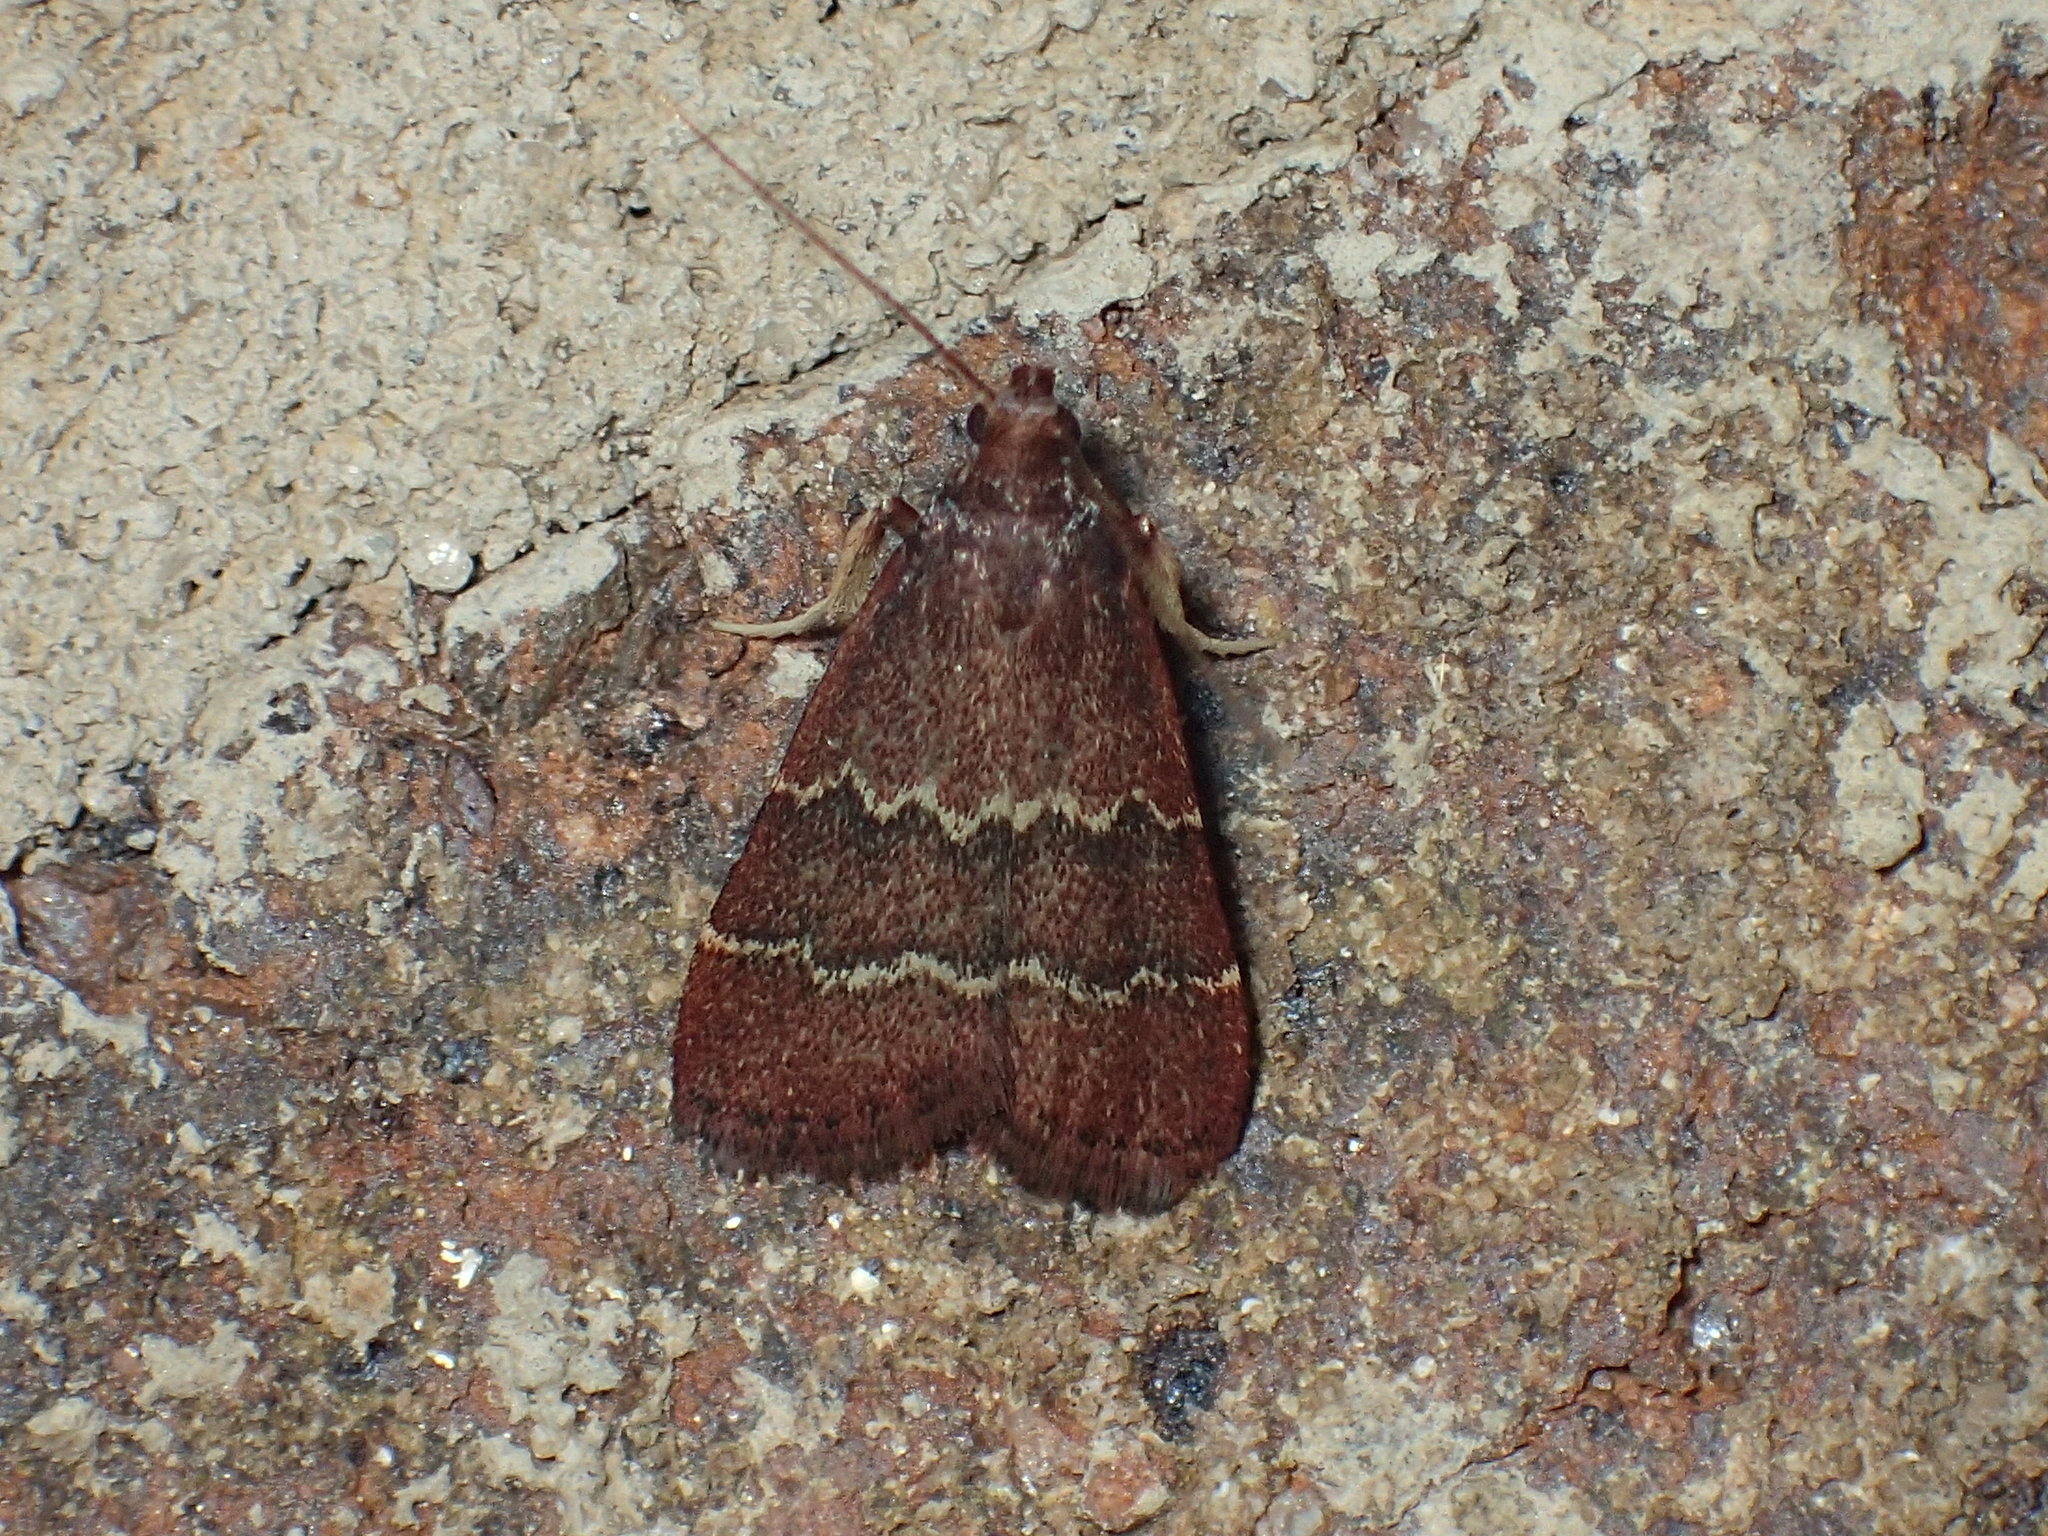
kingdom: Animalia
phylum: Arthropoda
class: Insecta
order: Lepidoptera
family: Pyralidae
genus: Arta
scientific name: Arta
